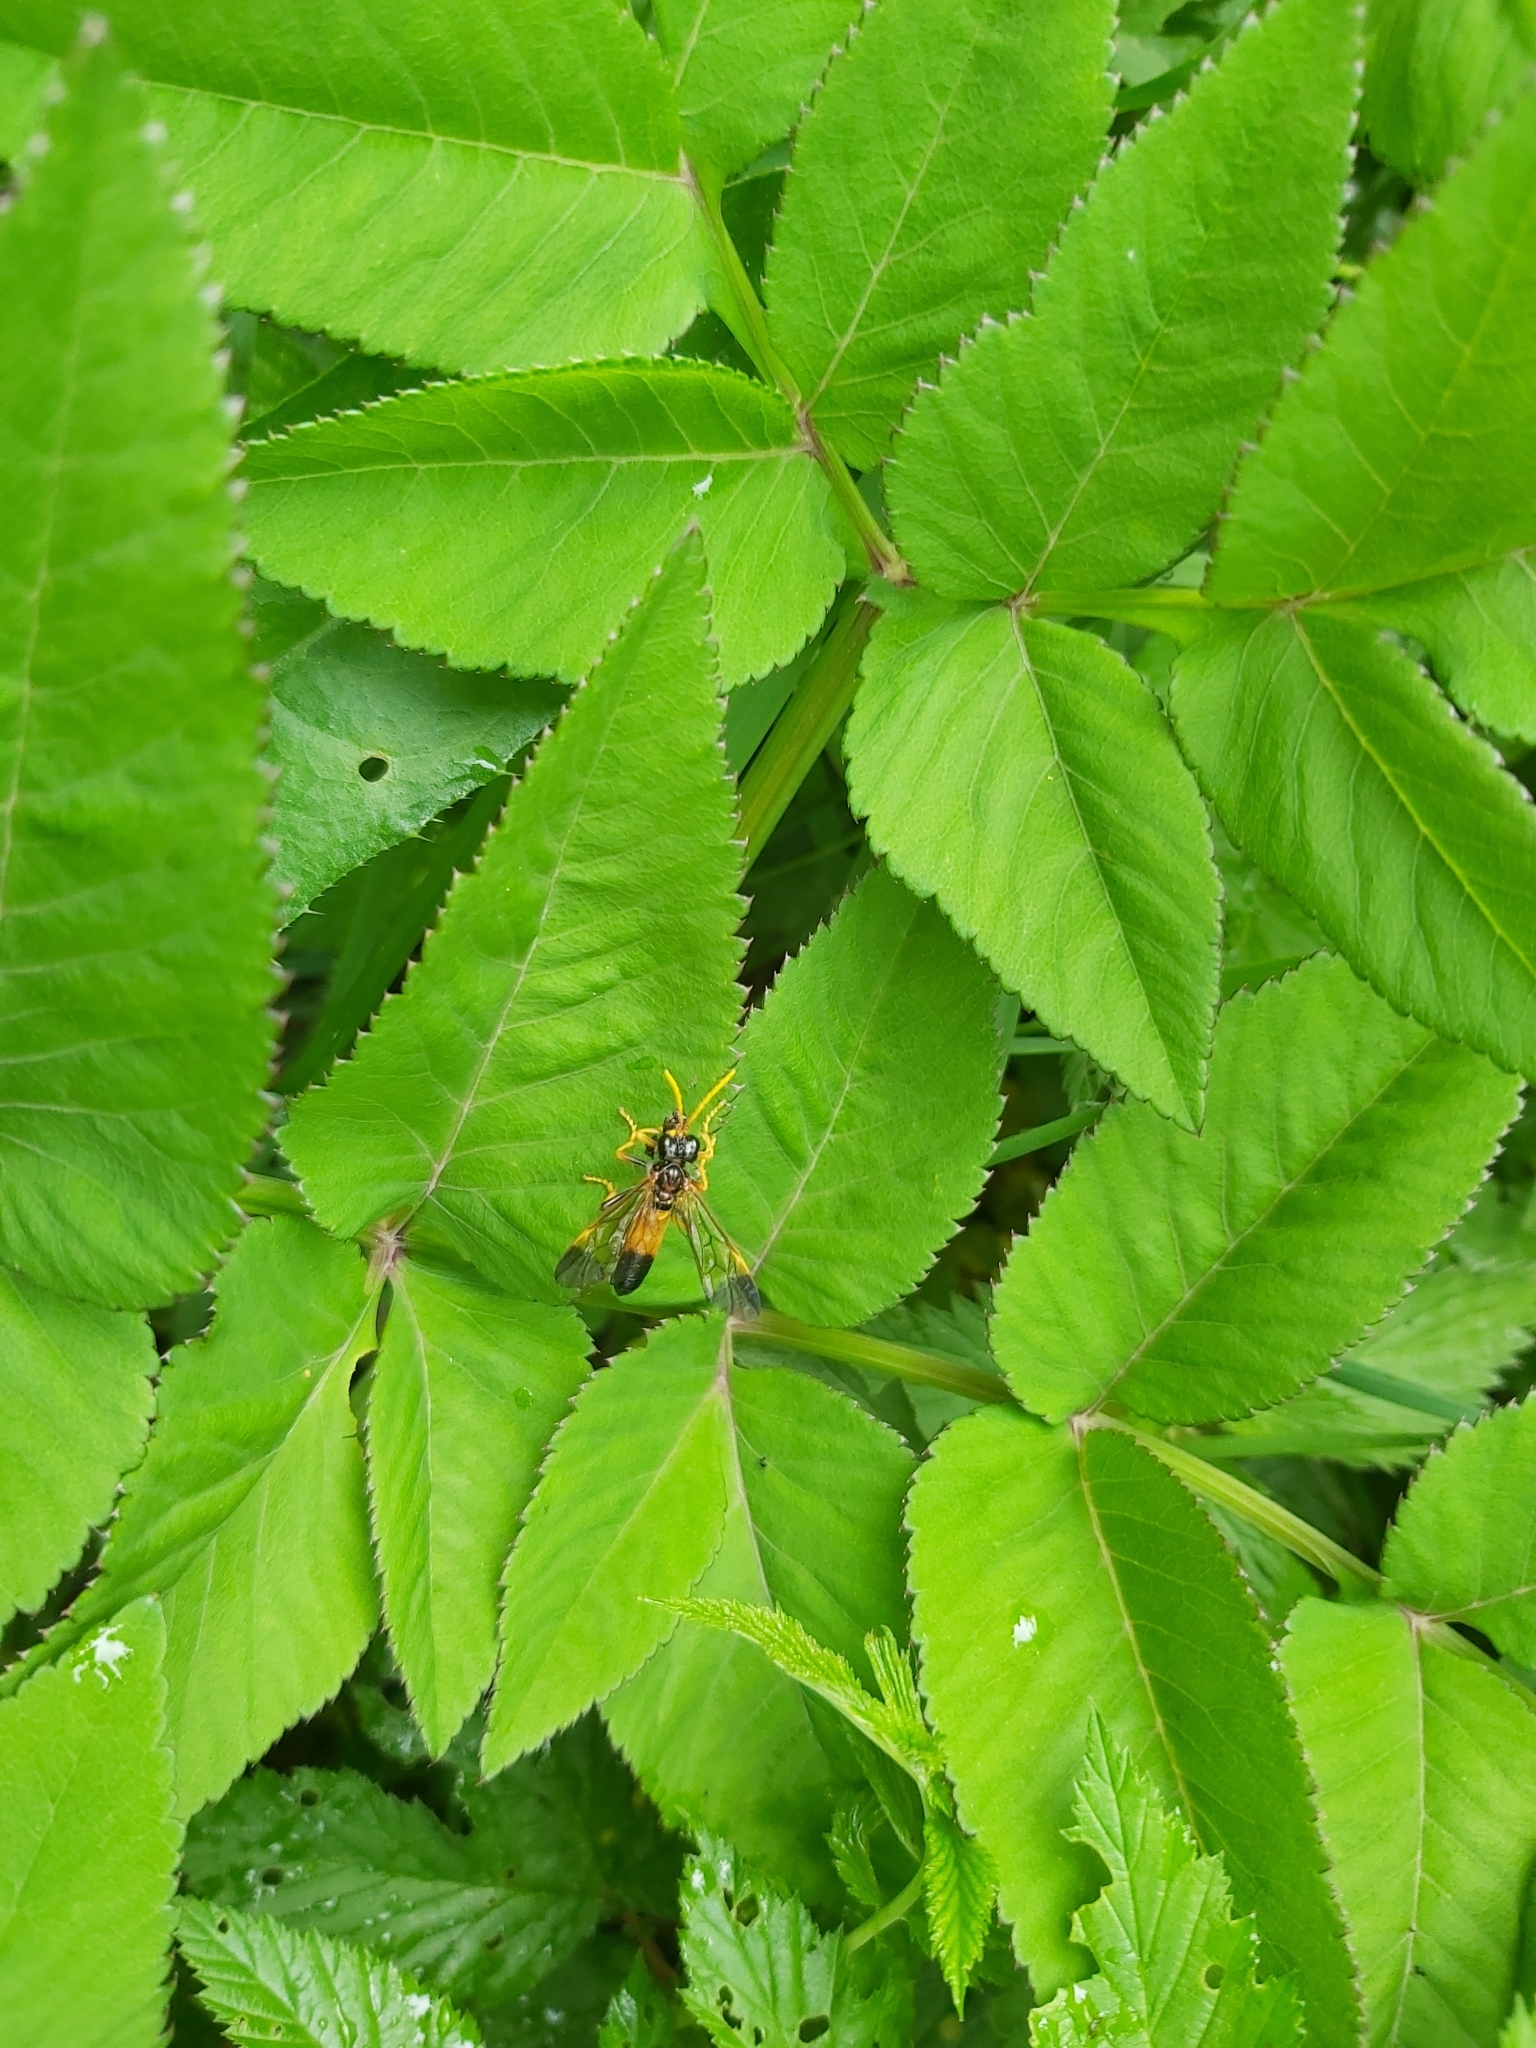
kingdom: Animalia
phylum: Arthropoda
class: Insecta
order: Hymenoptera
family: Tenthredinidae
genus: Tenthredo
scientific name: Tenthredo campestris
